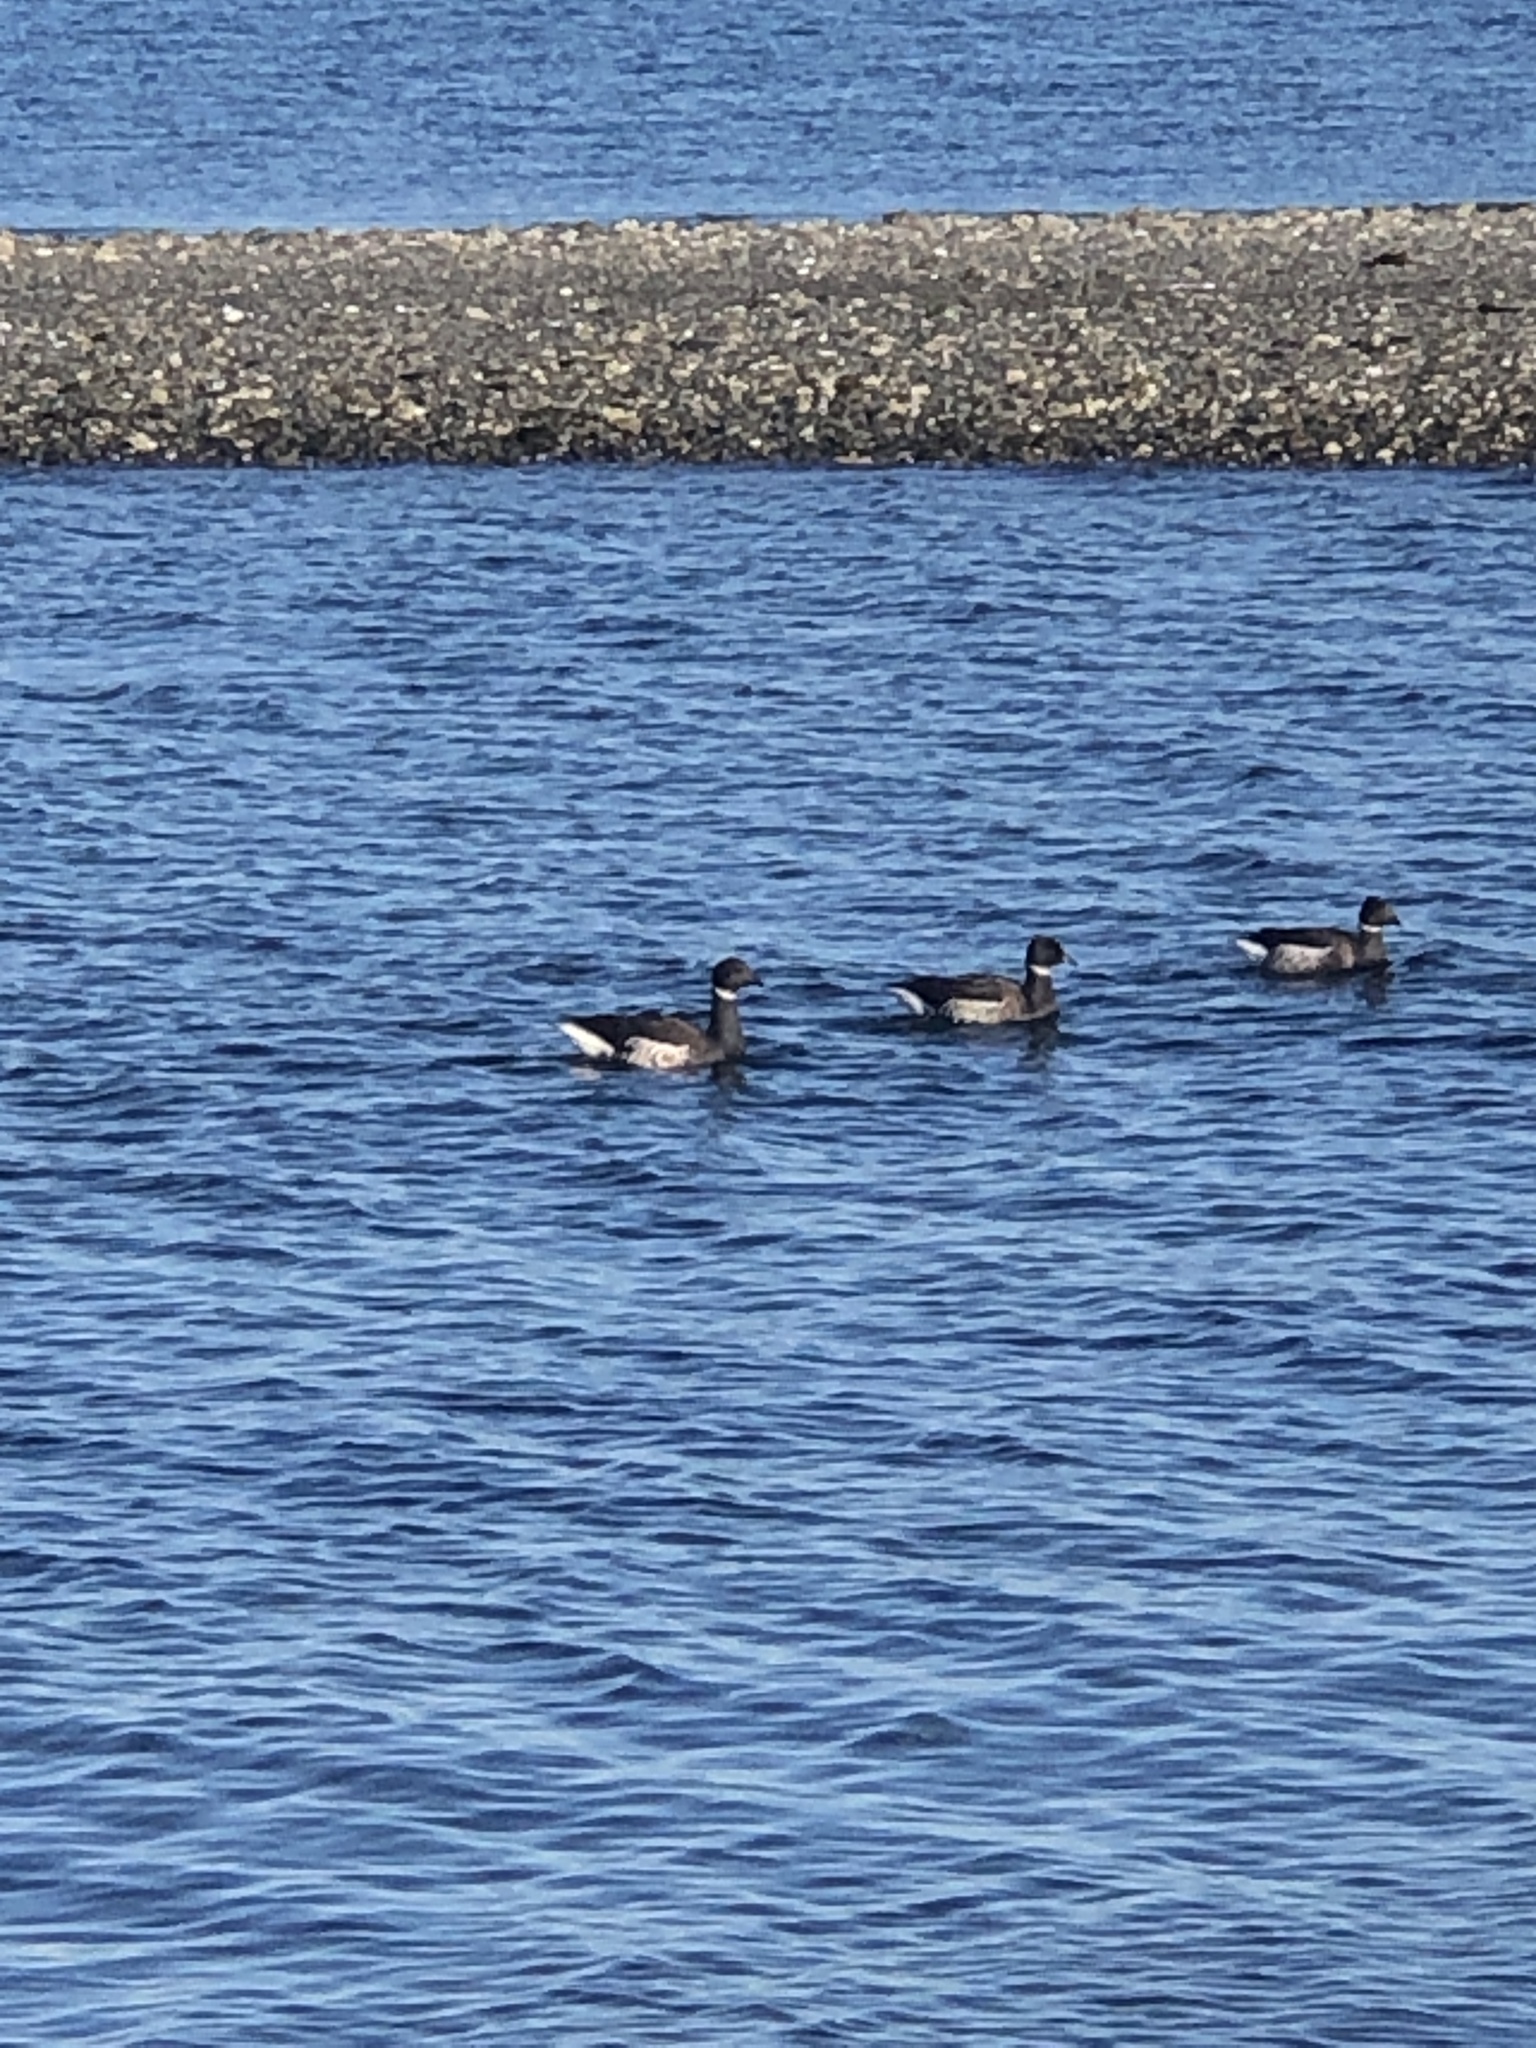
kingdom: Animalia
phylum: Chordata
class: Aves
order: Anseriformes
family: Anatidae
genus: Branta
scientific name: Branta bernicla
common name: Brant goose
